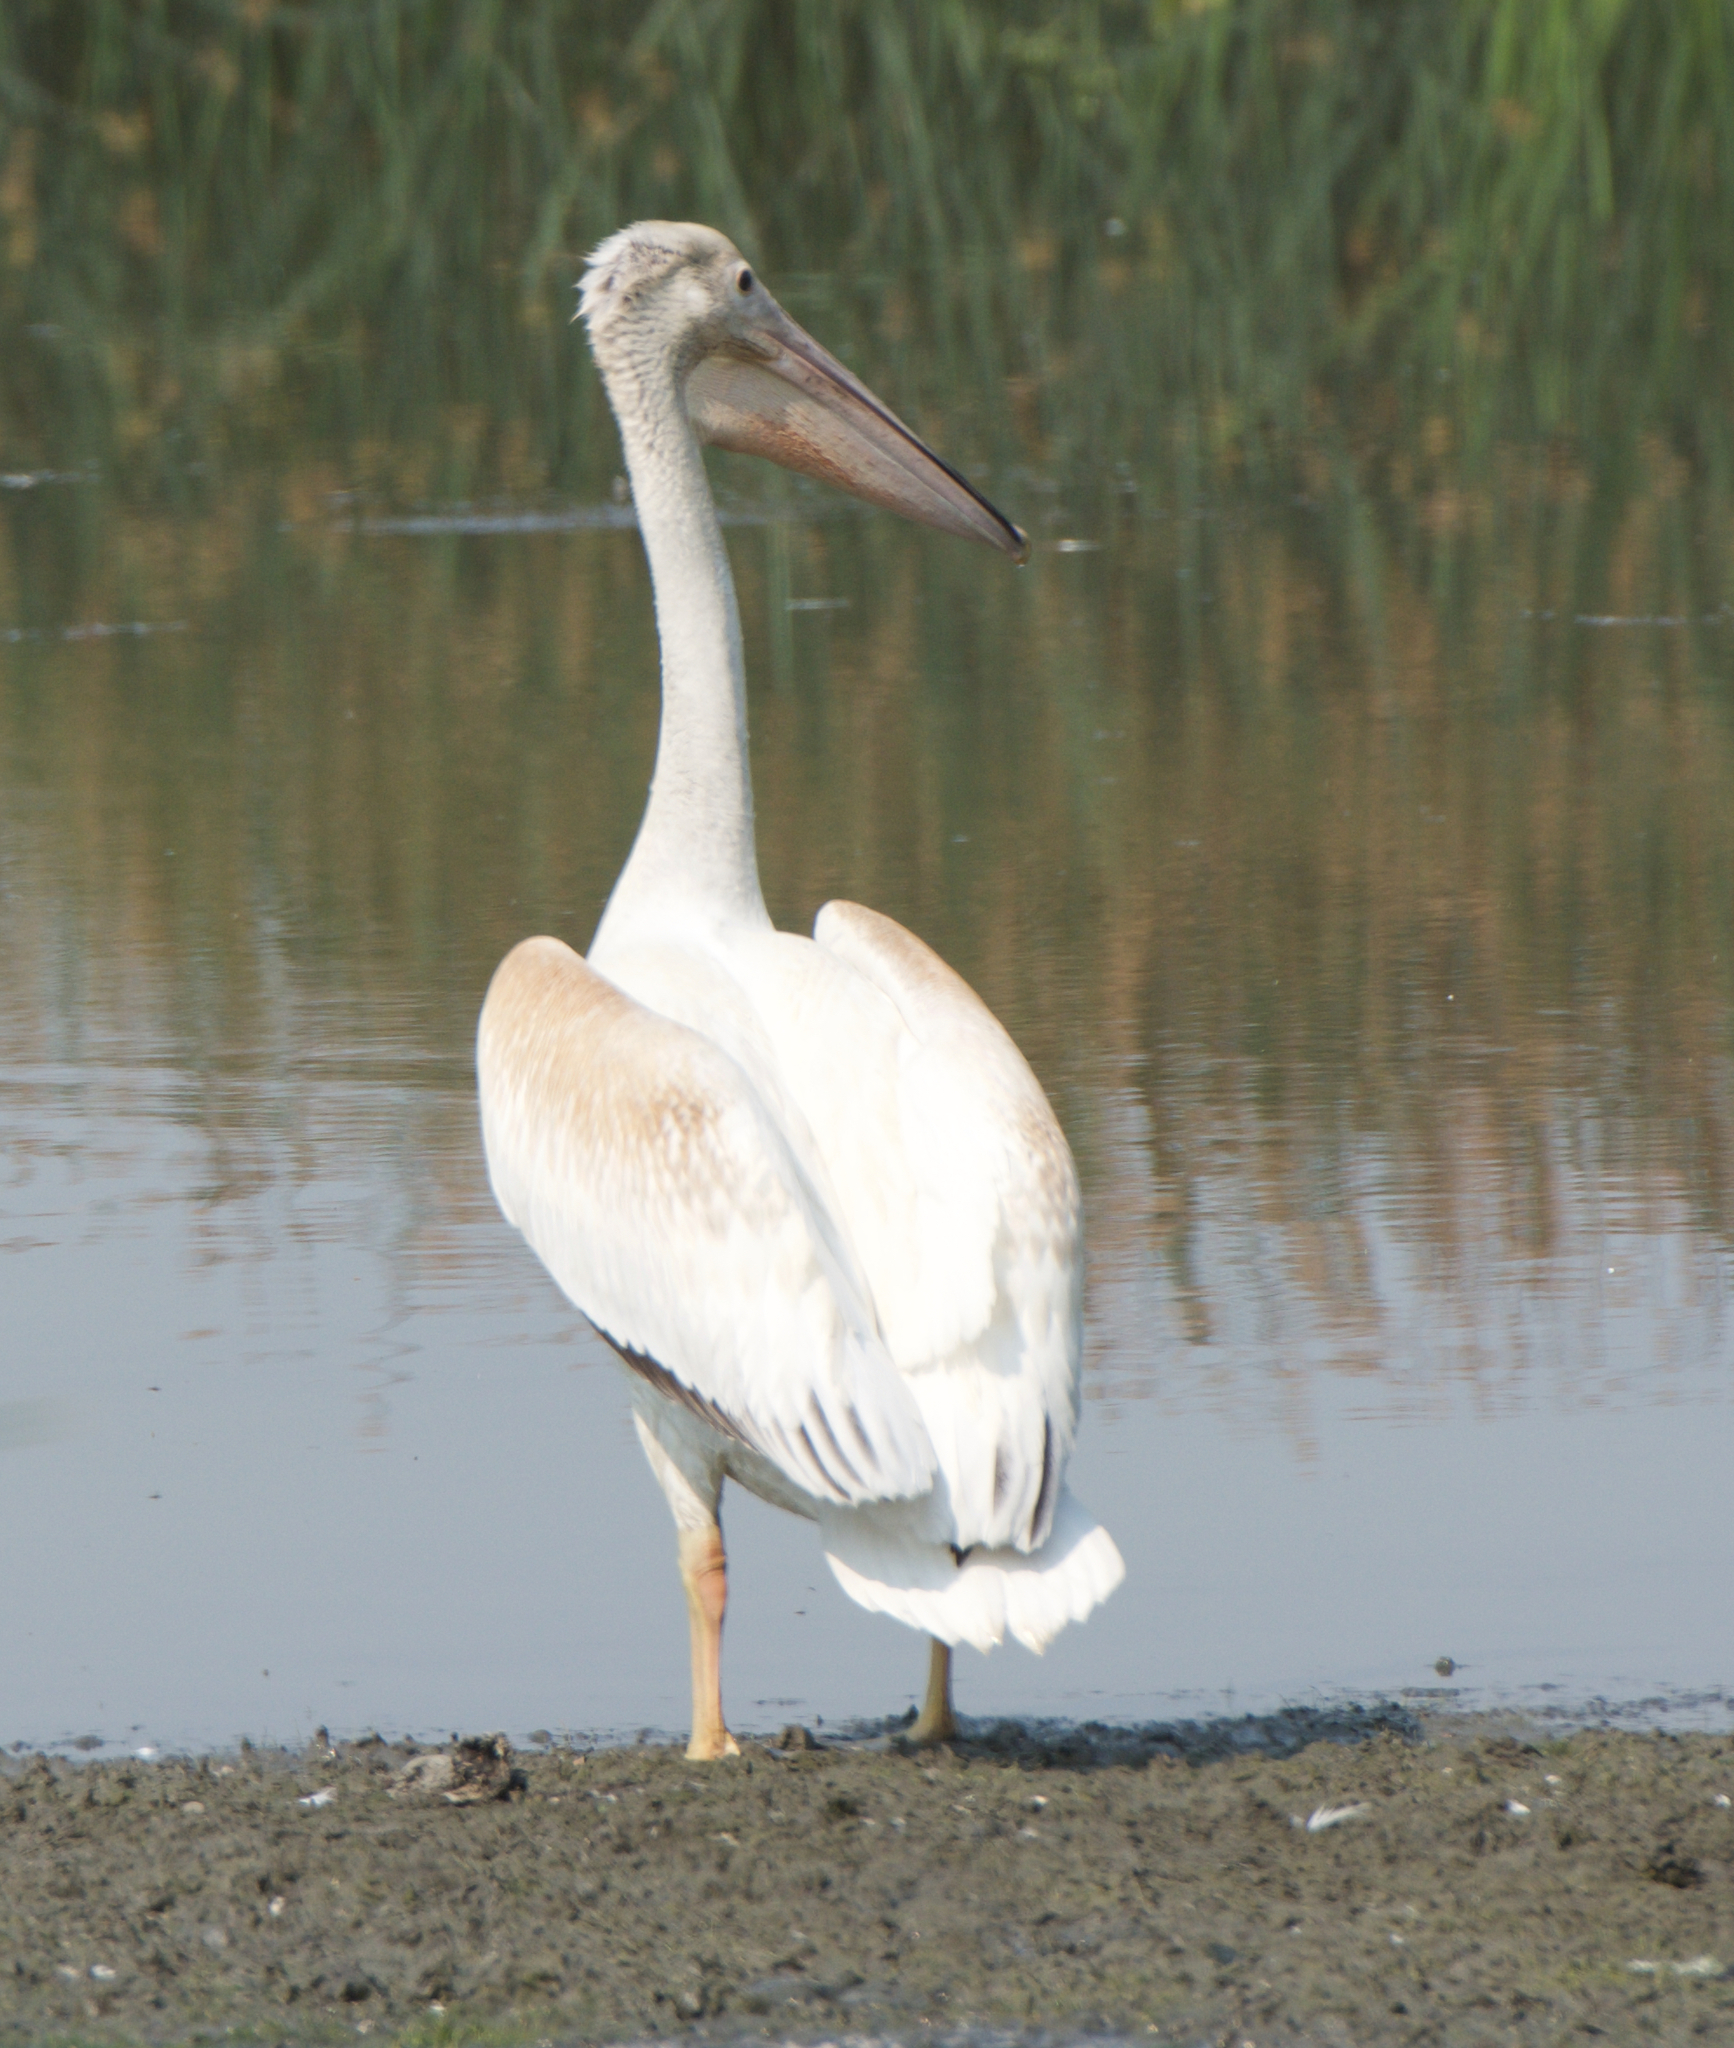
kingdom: Animalia
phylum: Chordata
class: Aves
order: Pelecaniformes
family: Pelecanidae
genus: Pelecanus
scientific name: Pelecanus erythrorhynchos
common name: American white pelican
